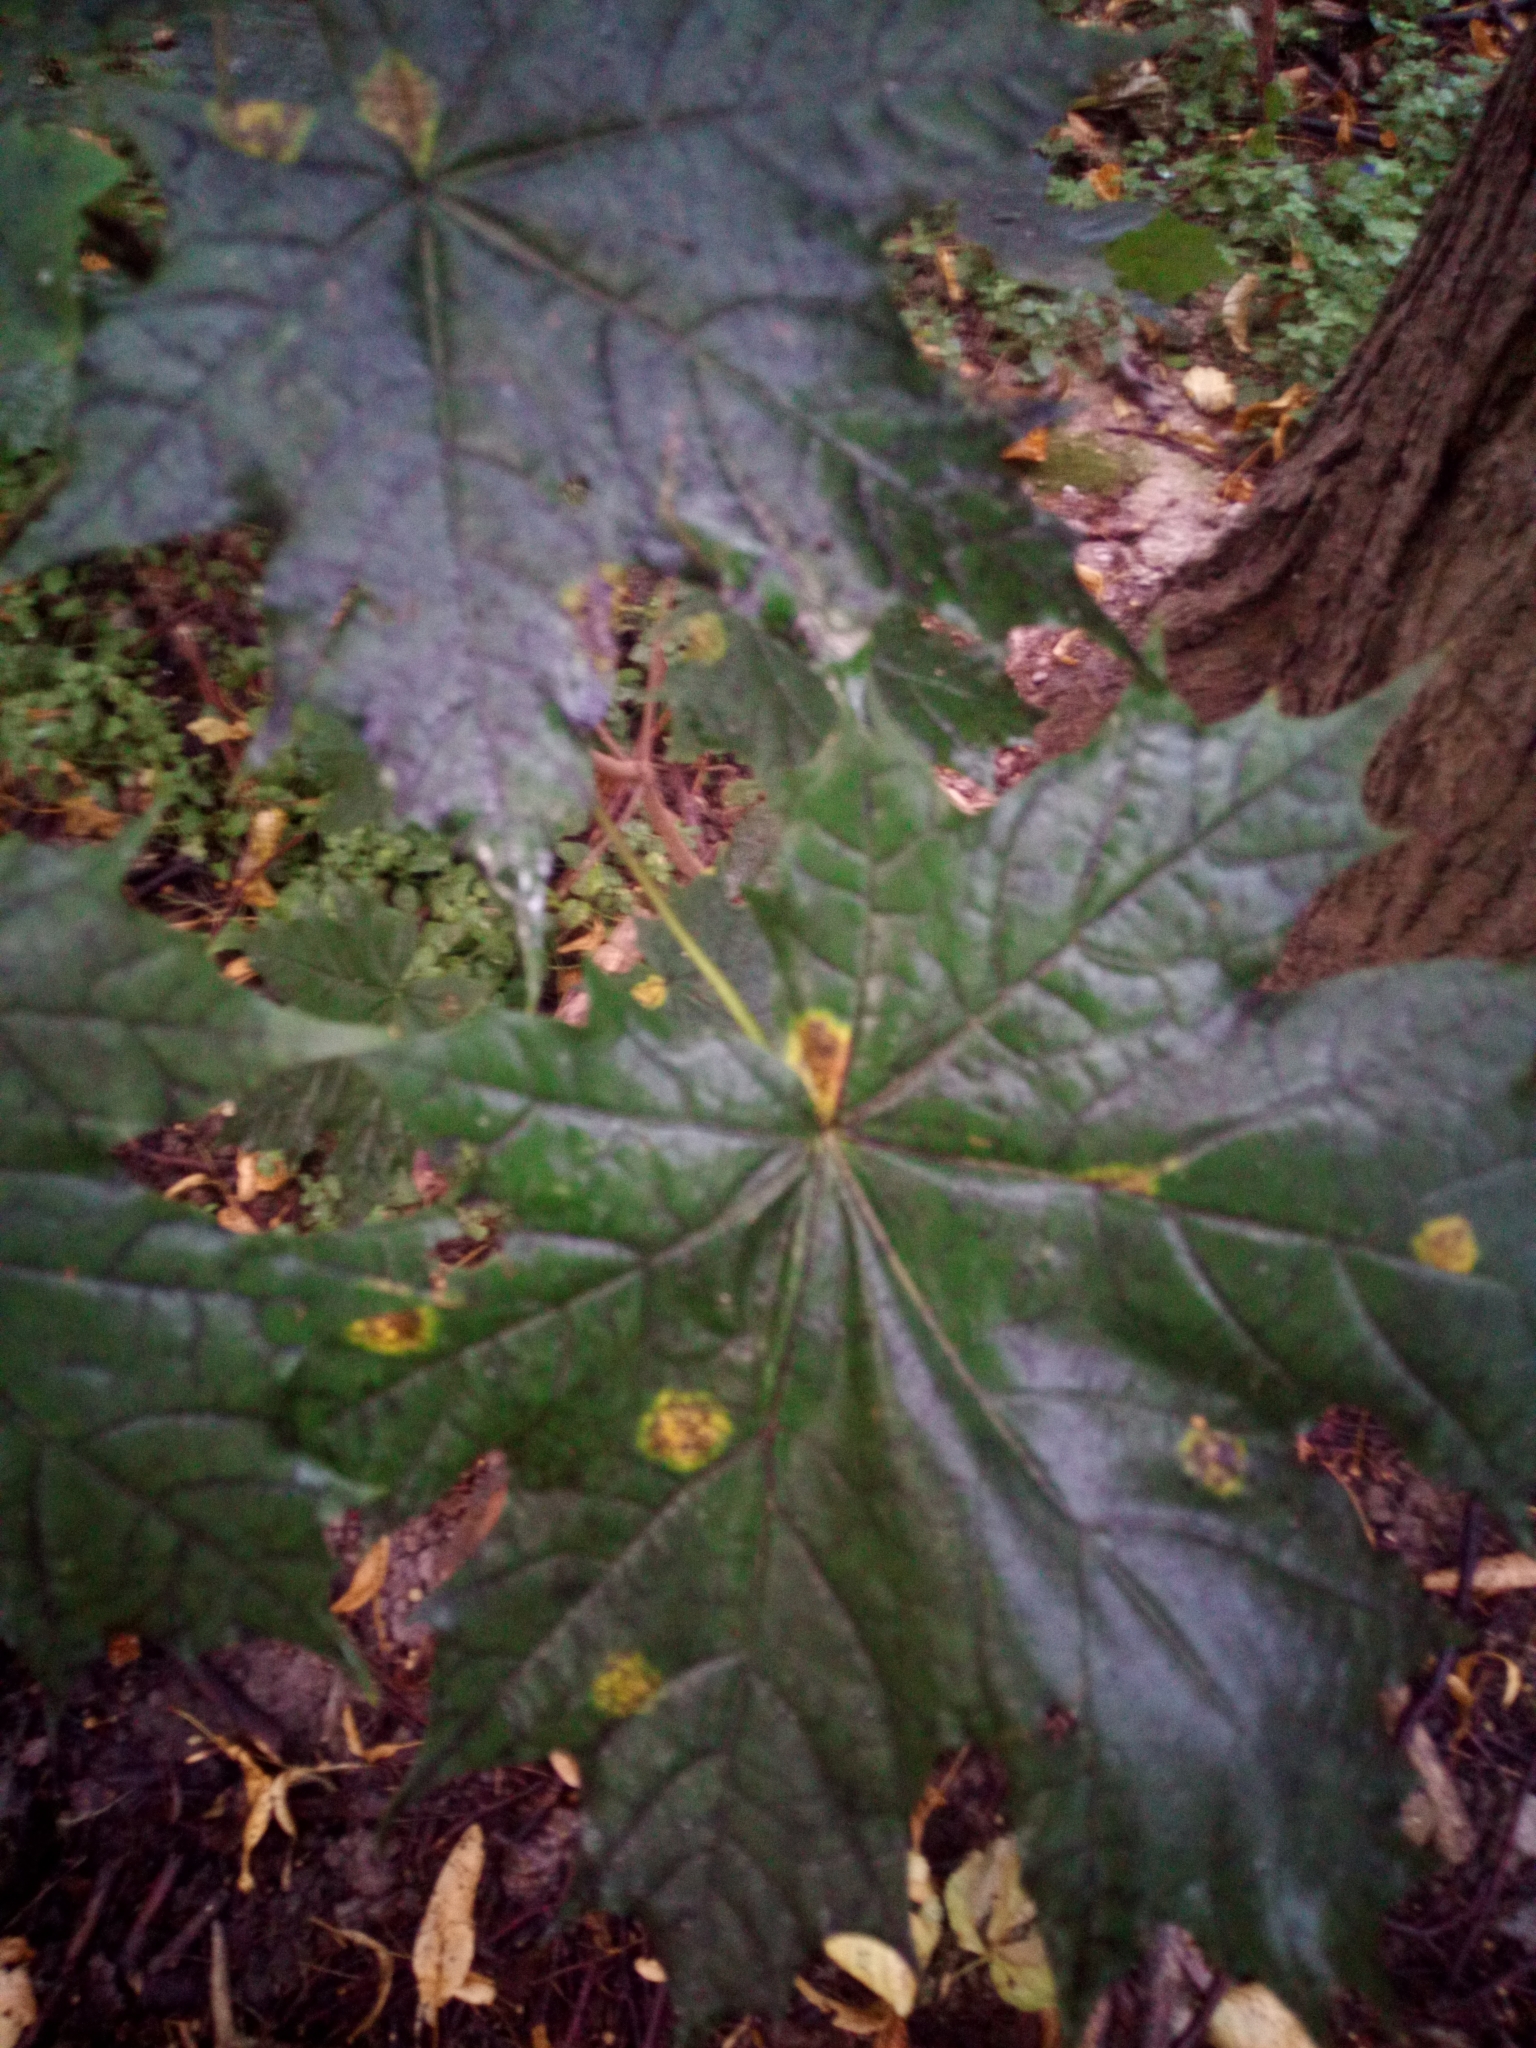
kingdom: Plantae
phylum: Tracheophyta
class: Magnoliopsida
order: Sapindales
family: Sapindaceae
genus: Acer
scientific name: Acer platanoides
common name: Norway maple
